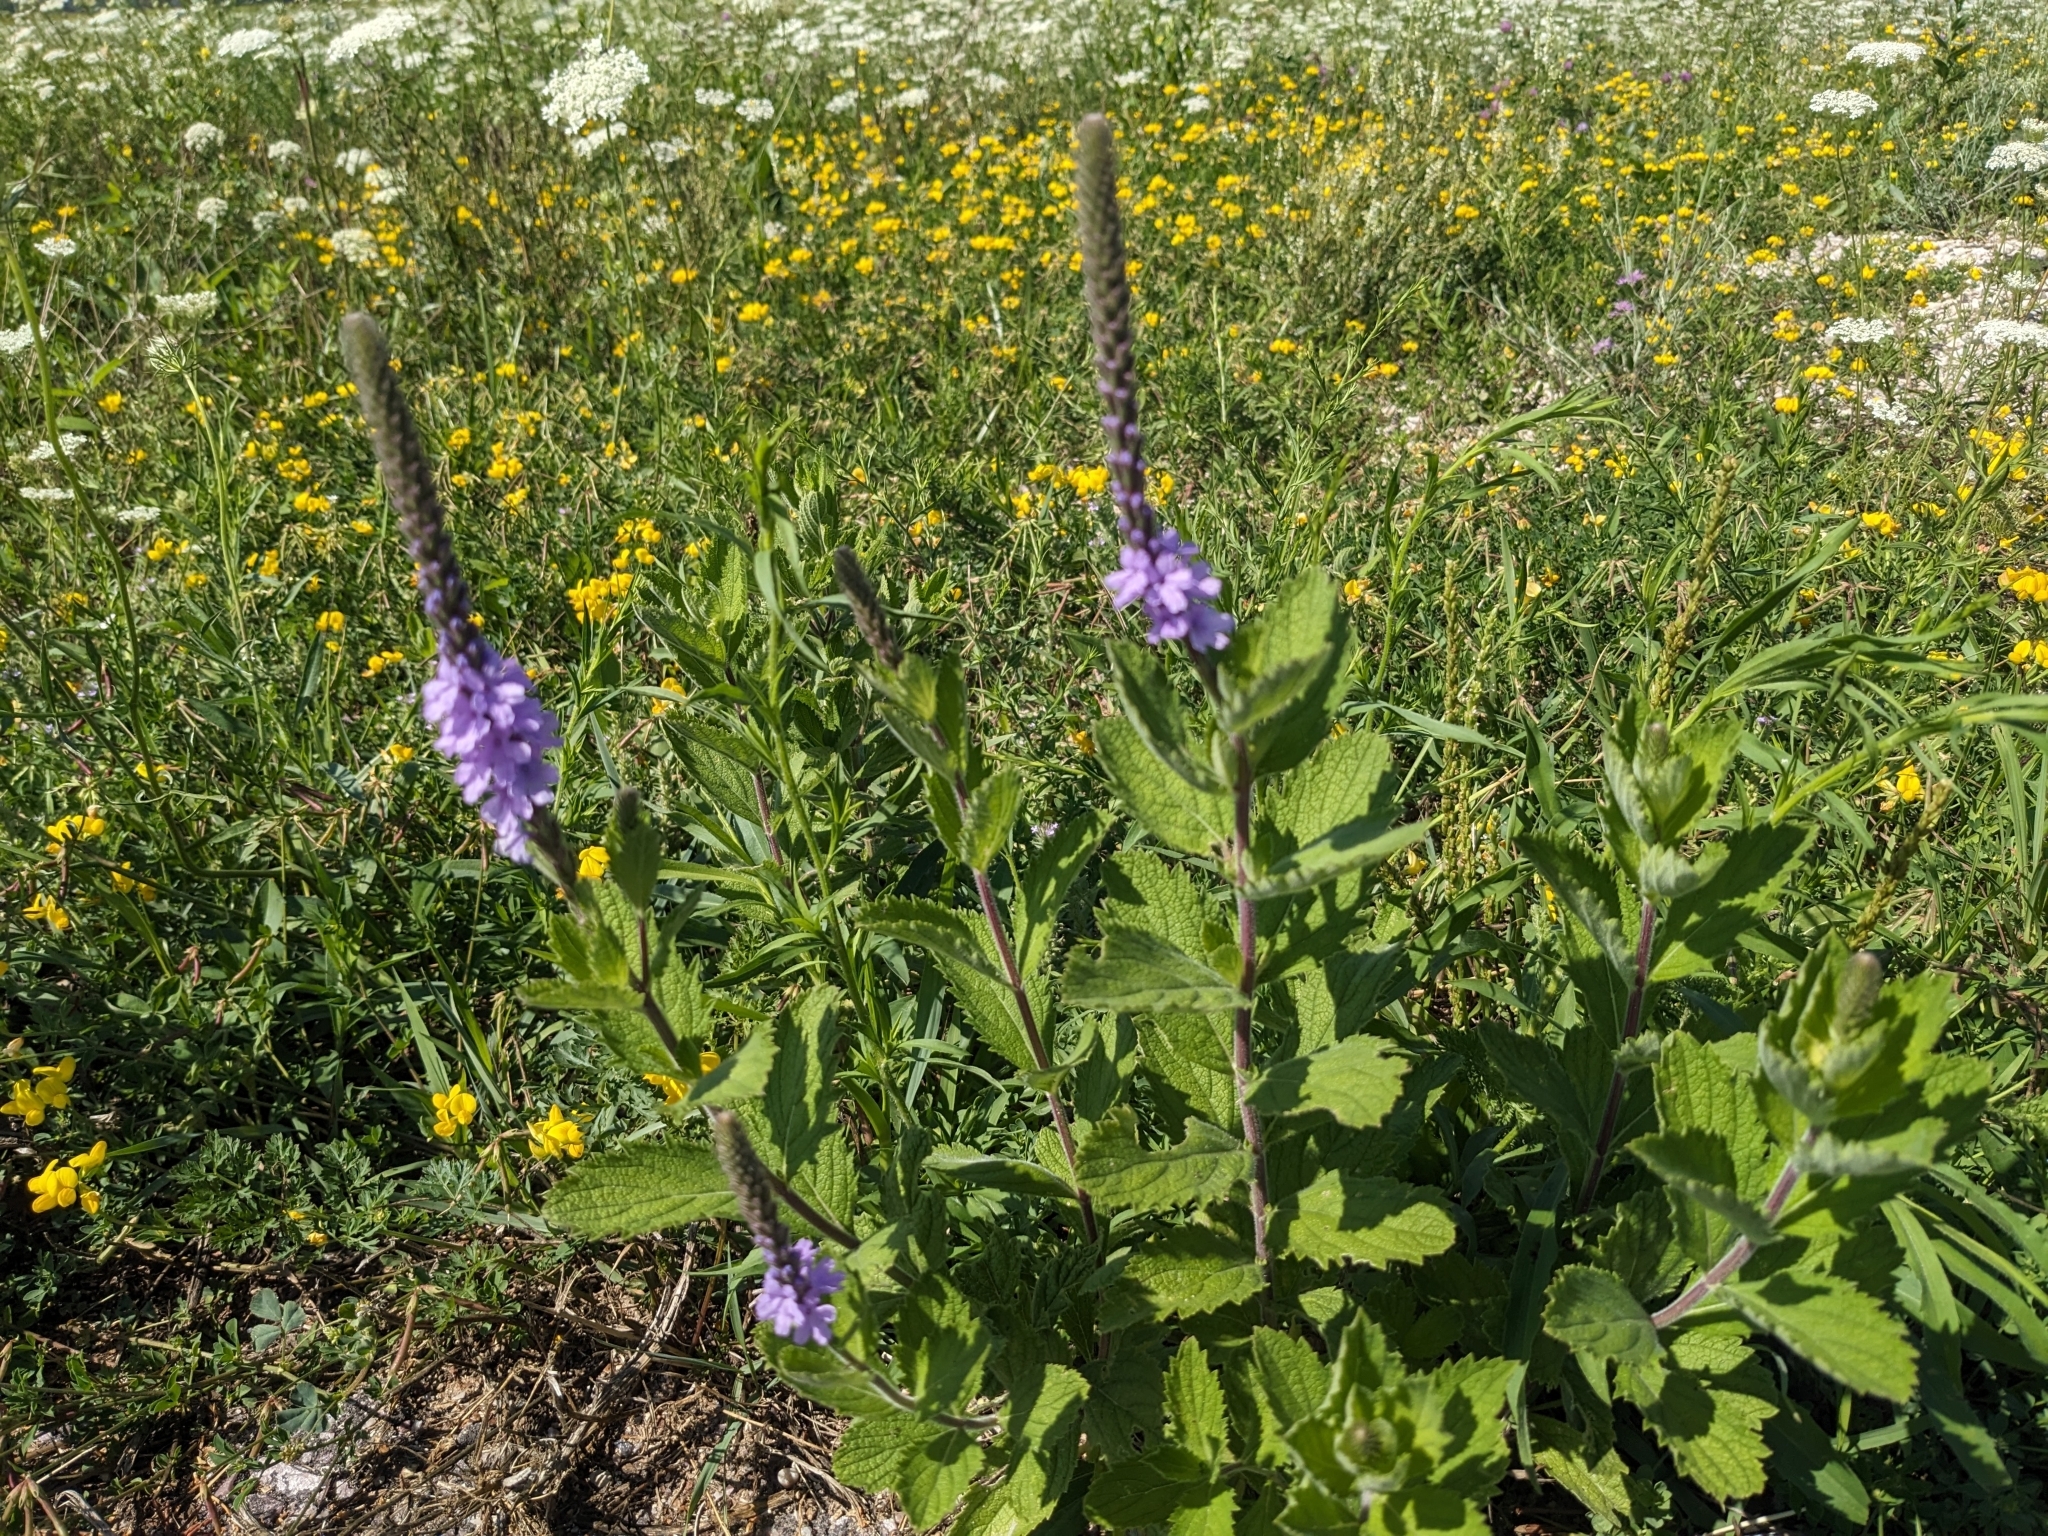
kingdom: Plantae
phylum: Tracheophyta
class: Magnoliopsida
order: Lamiales
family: Verbenaceae
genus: Verbena
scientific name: Verbena stricta
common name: Hoary vervain
